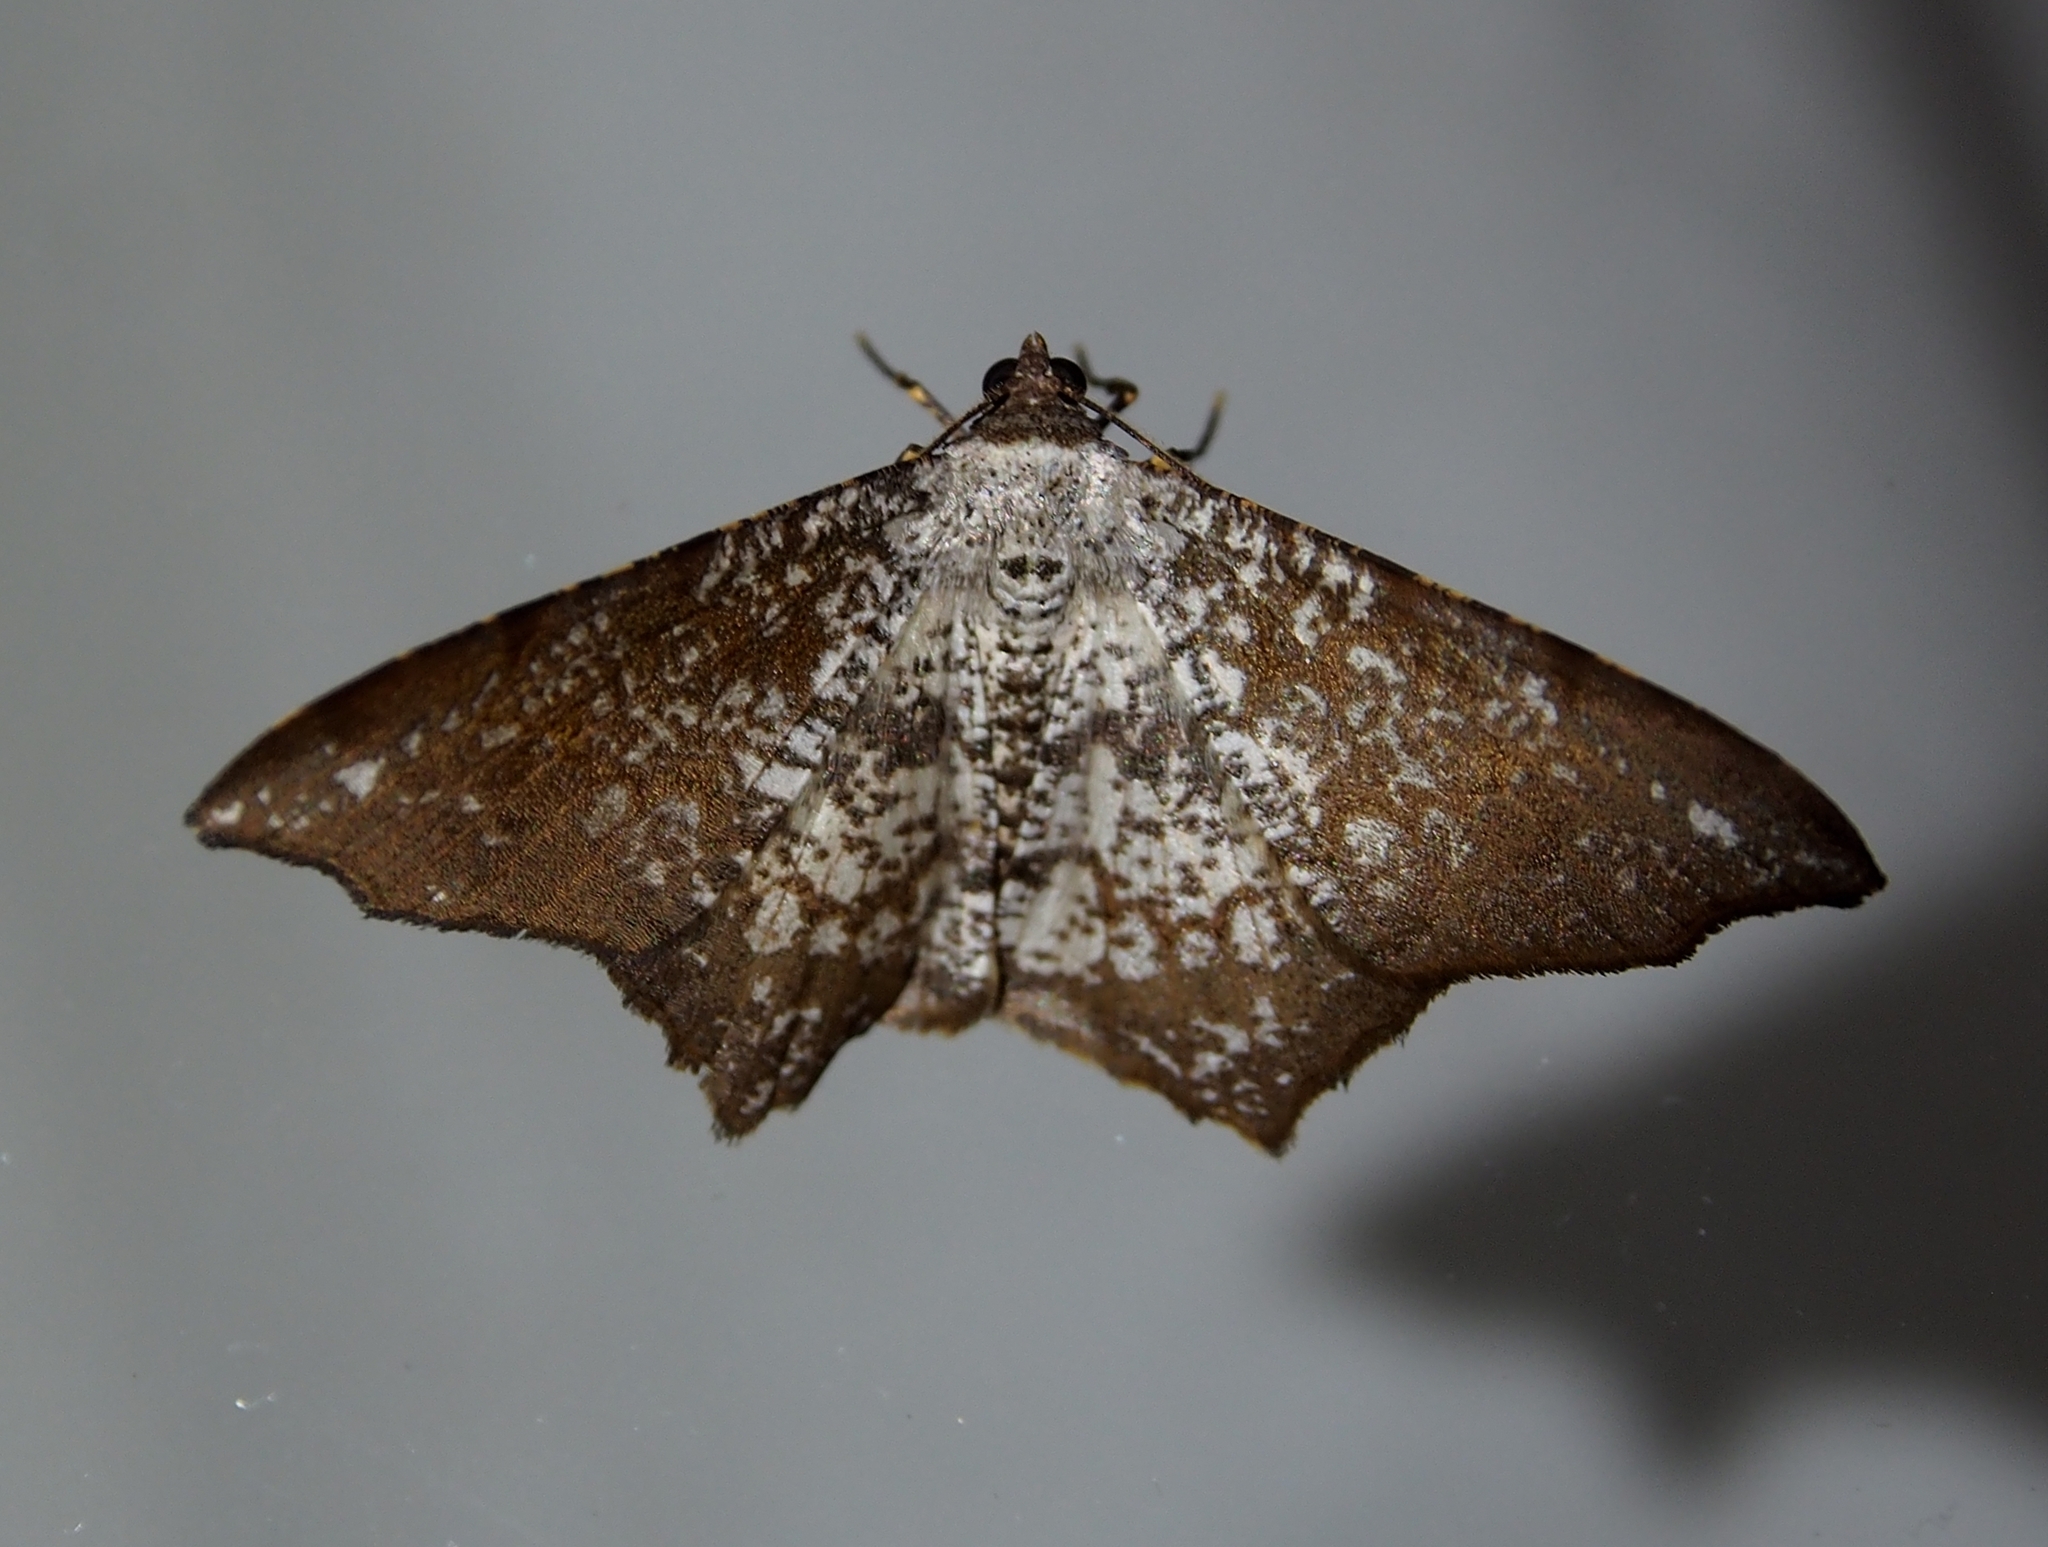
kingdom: Animalia
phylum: Arthropoda
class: Insecta
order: Lepidoptera
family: Geometridae
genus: Semiothisa
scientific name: Semiothisa salsa
